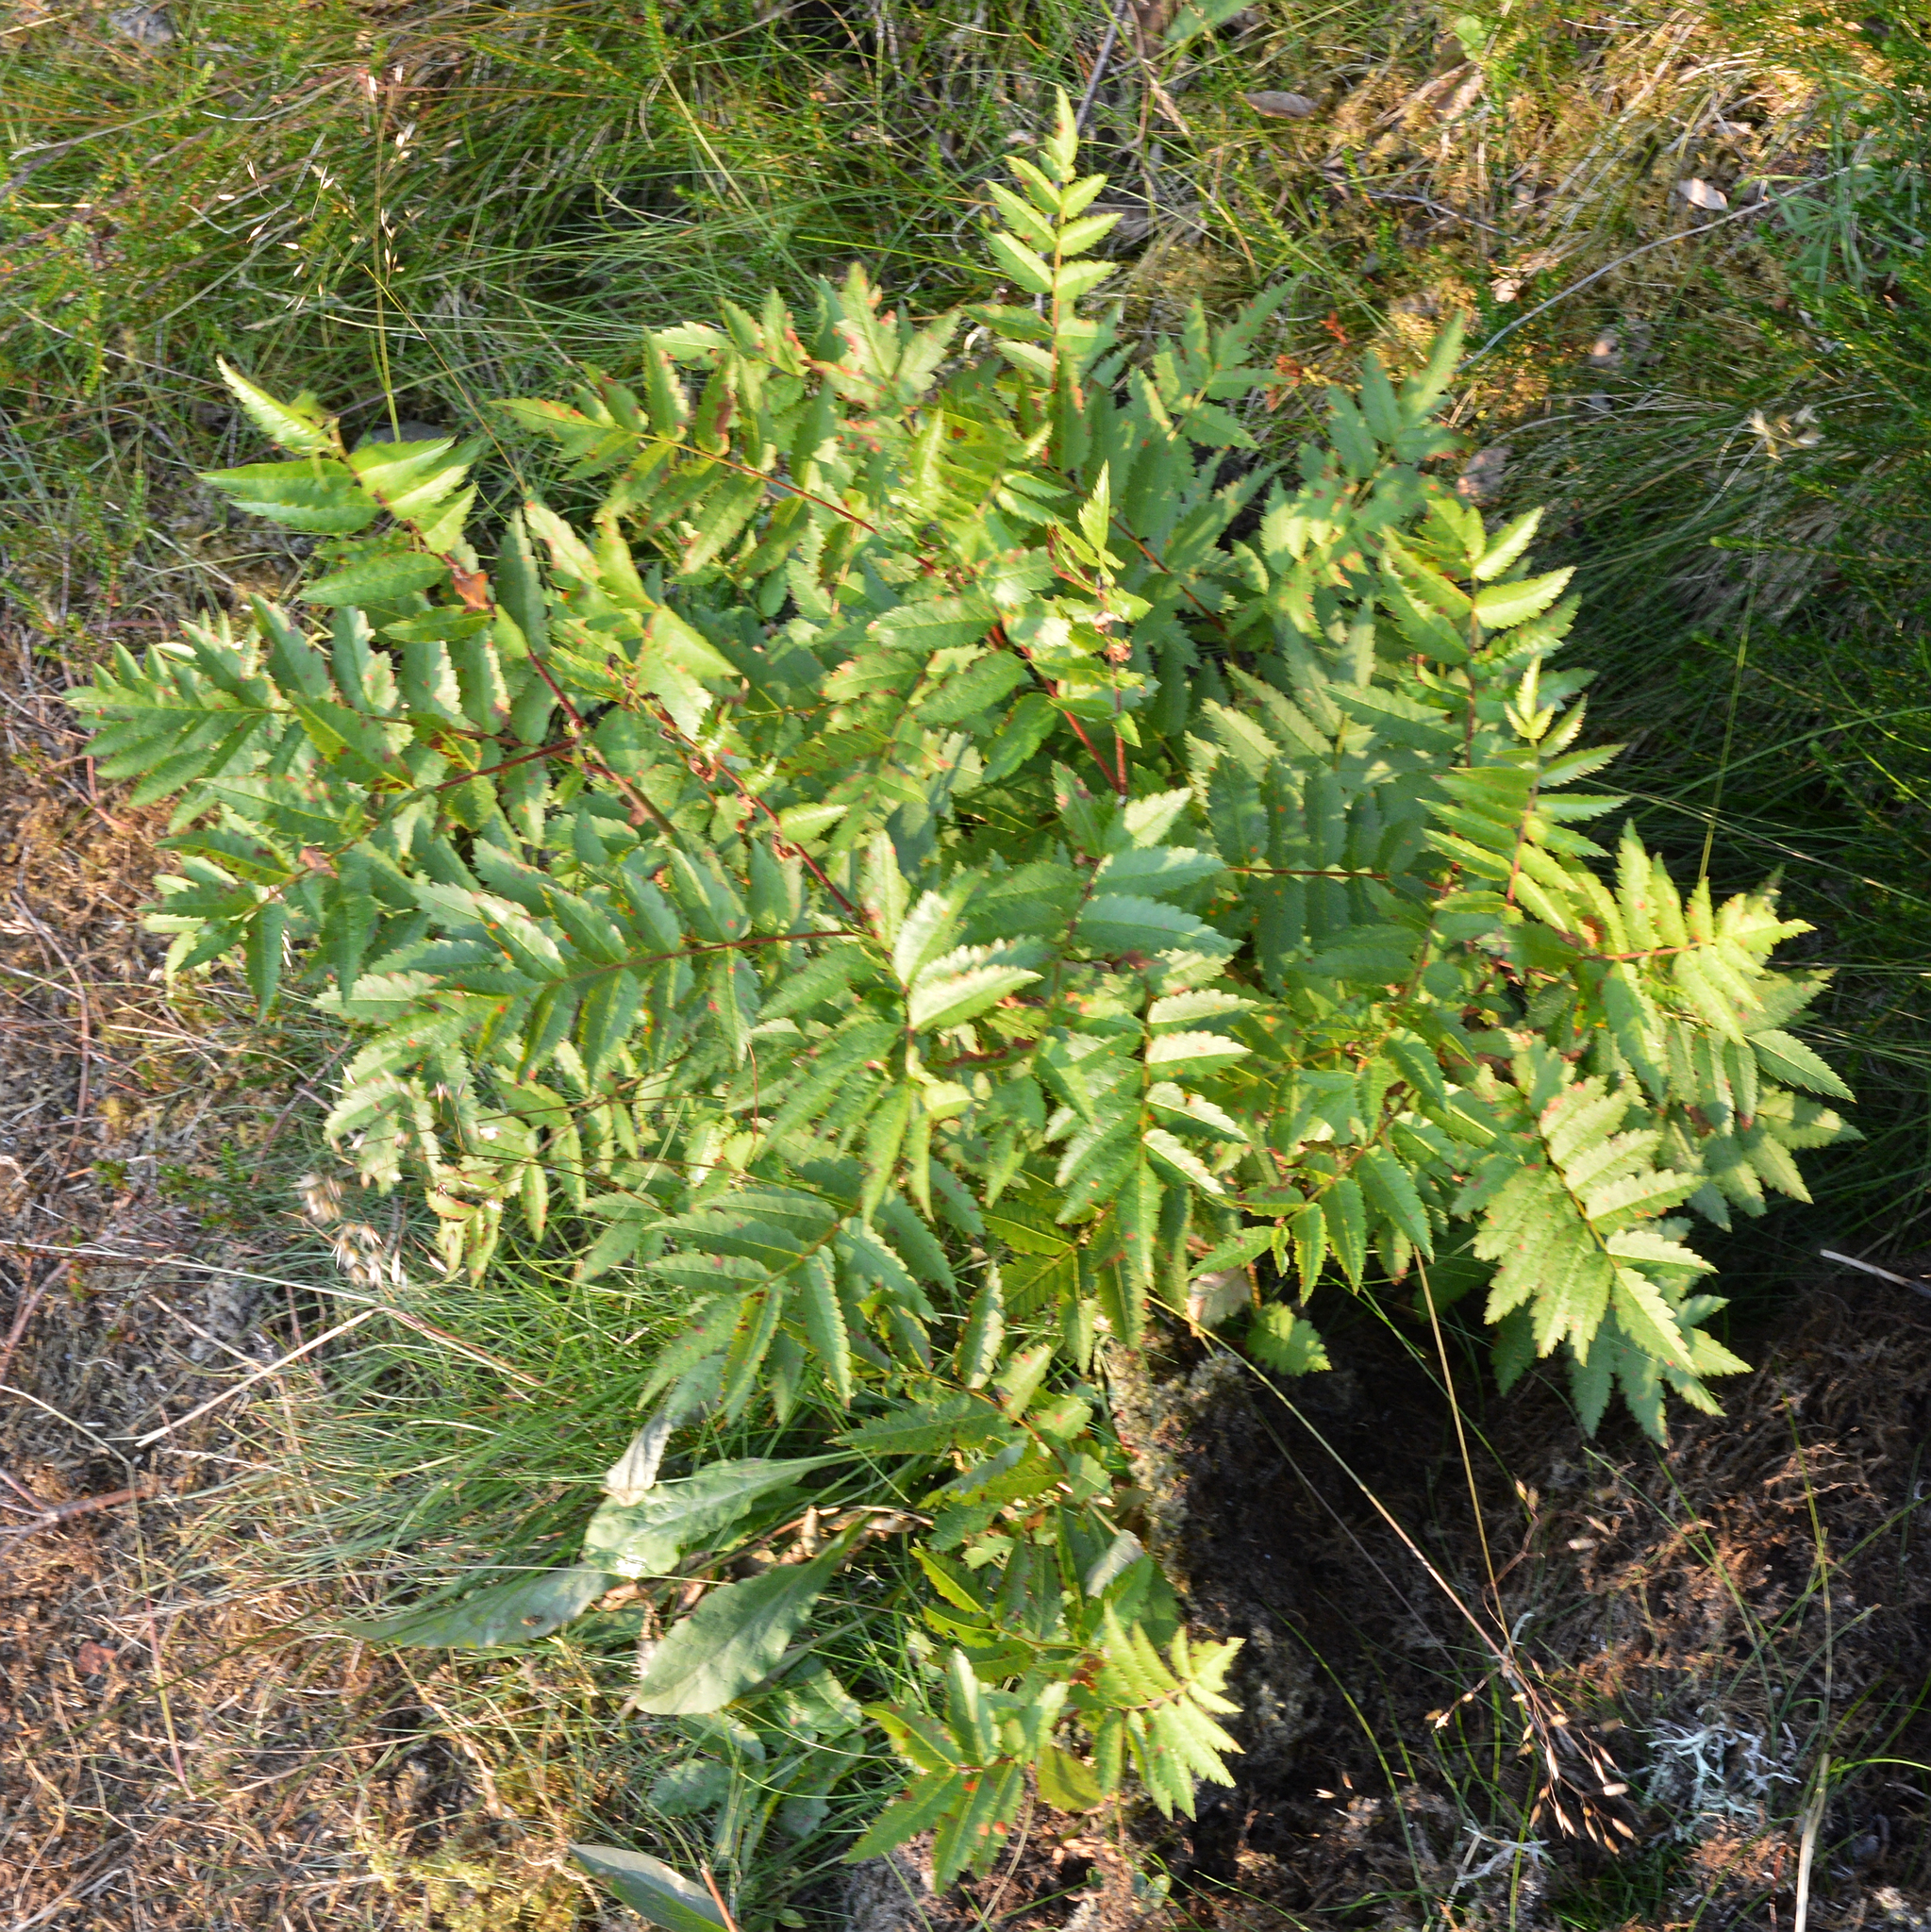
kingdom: Plantae
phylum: Tracheophyta
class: Magnoliopsida
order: Rosales
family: Rosaceae
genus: Sorbus
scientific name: Sorbus aucuparia
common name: Rowan
